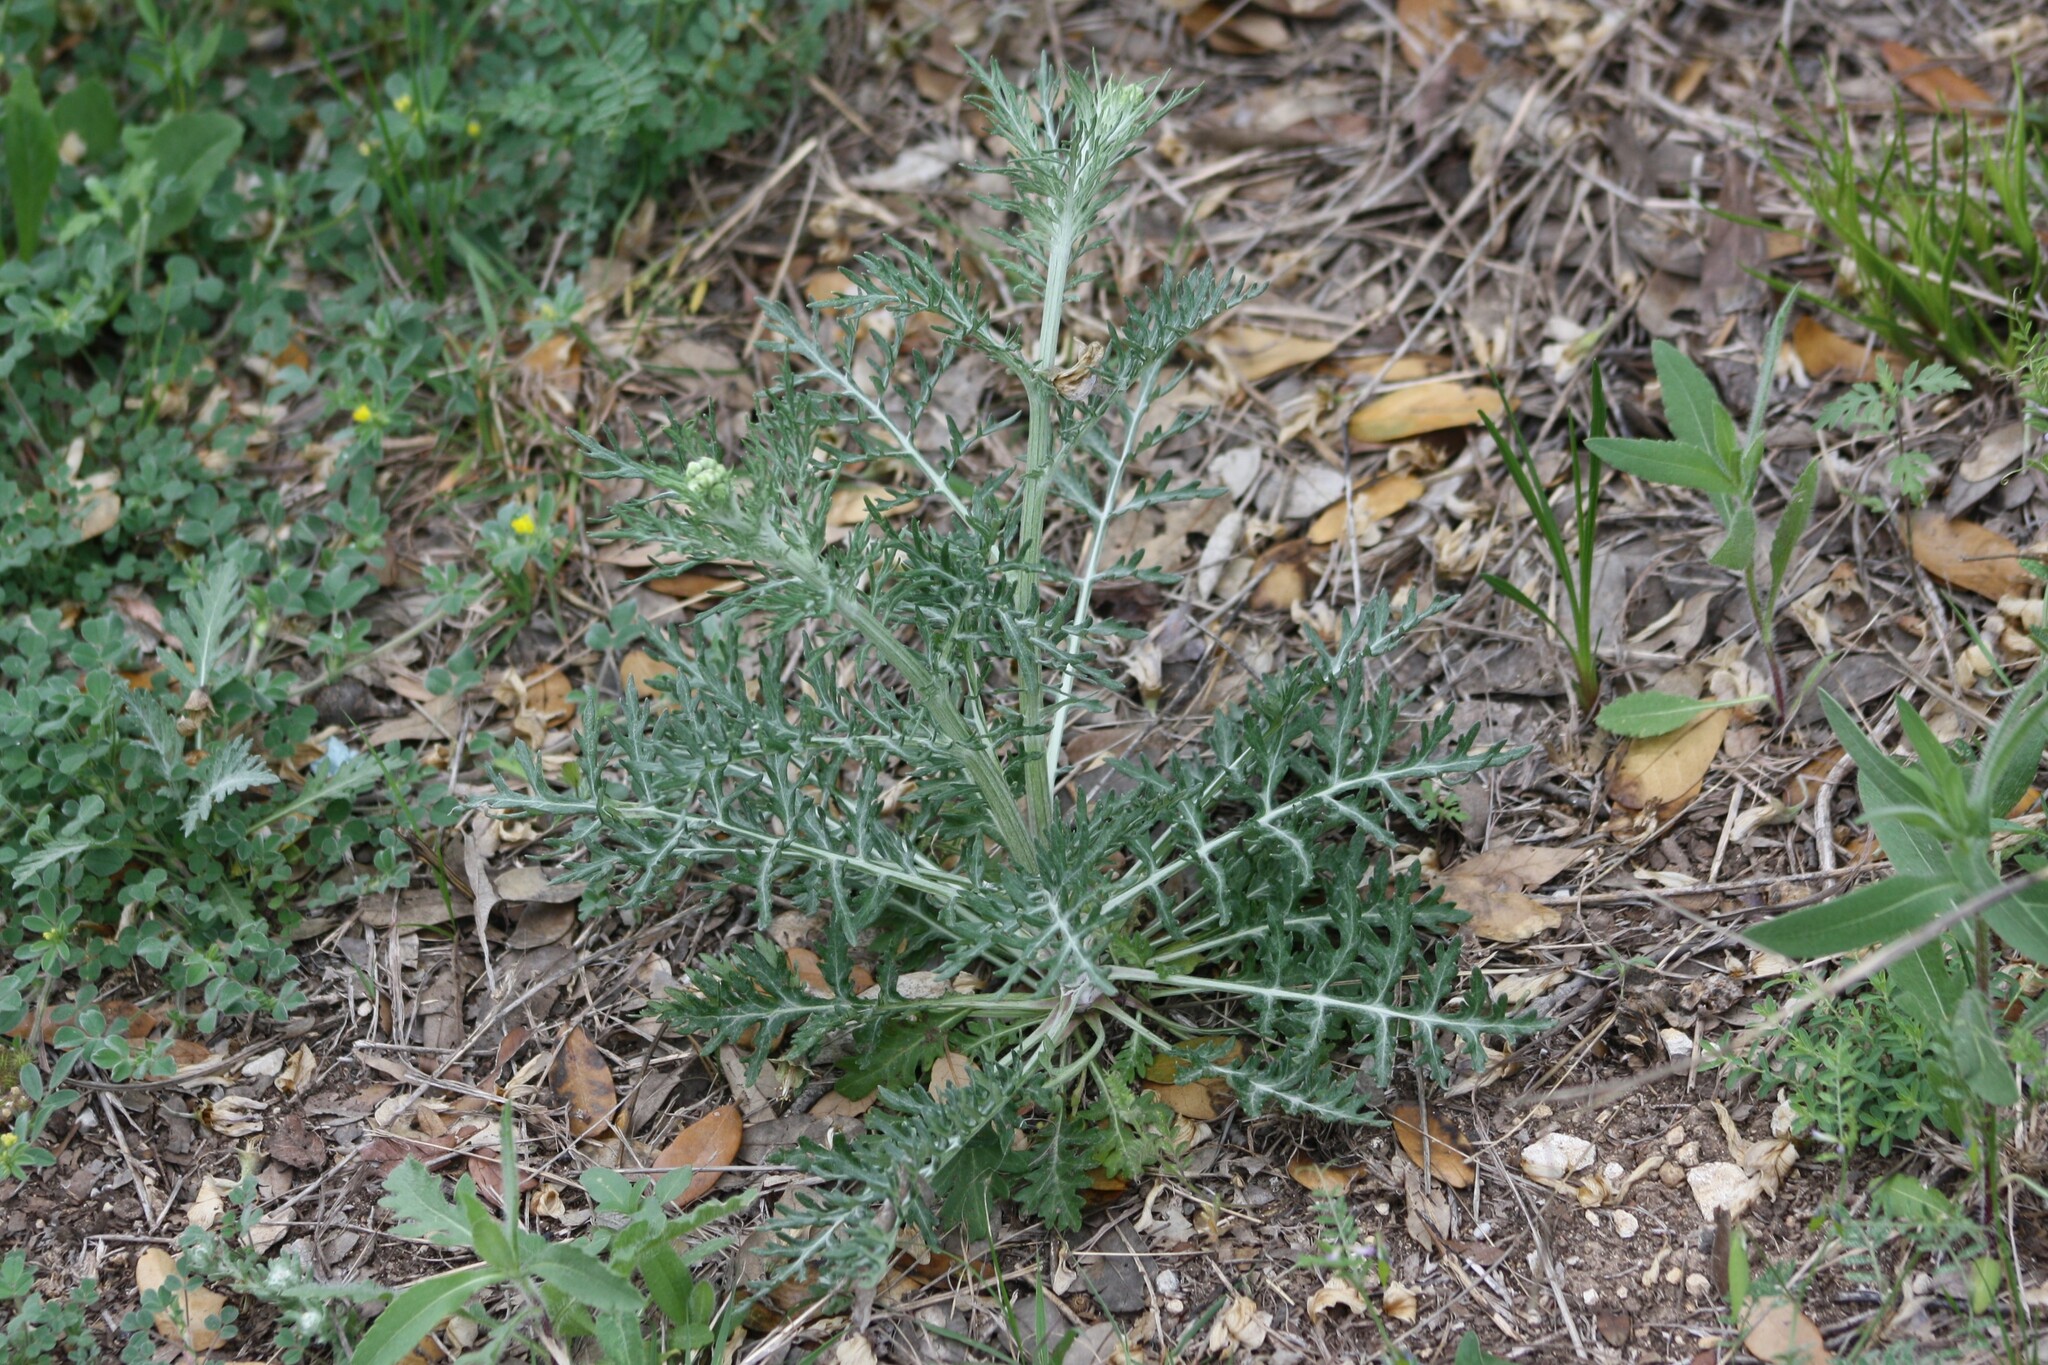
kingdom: Plantae
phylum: Tracheophyta
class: Magnoliopsida
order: Asterales
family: Asteraceae
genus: Hymenopappus
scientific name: Hymenopappus scabiosaeus
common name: Carolina woollywhite
